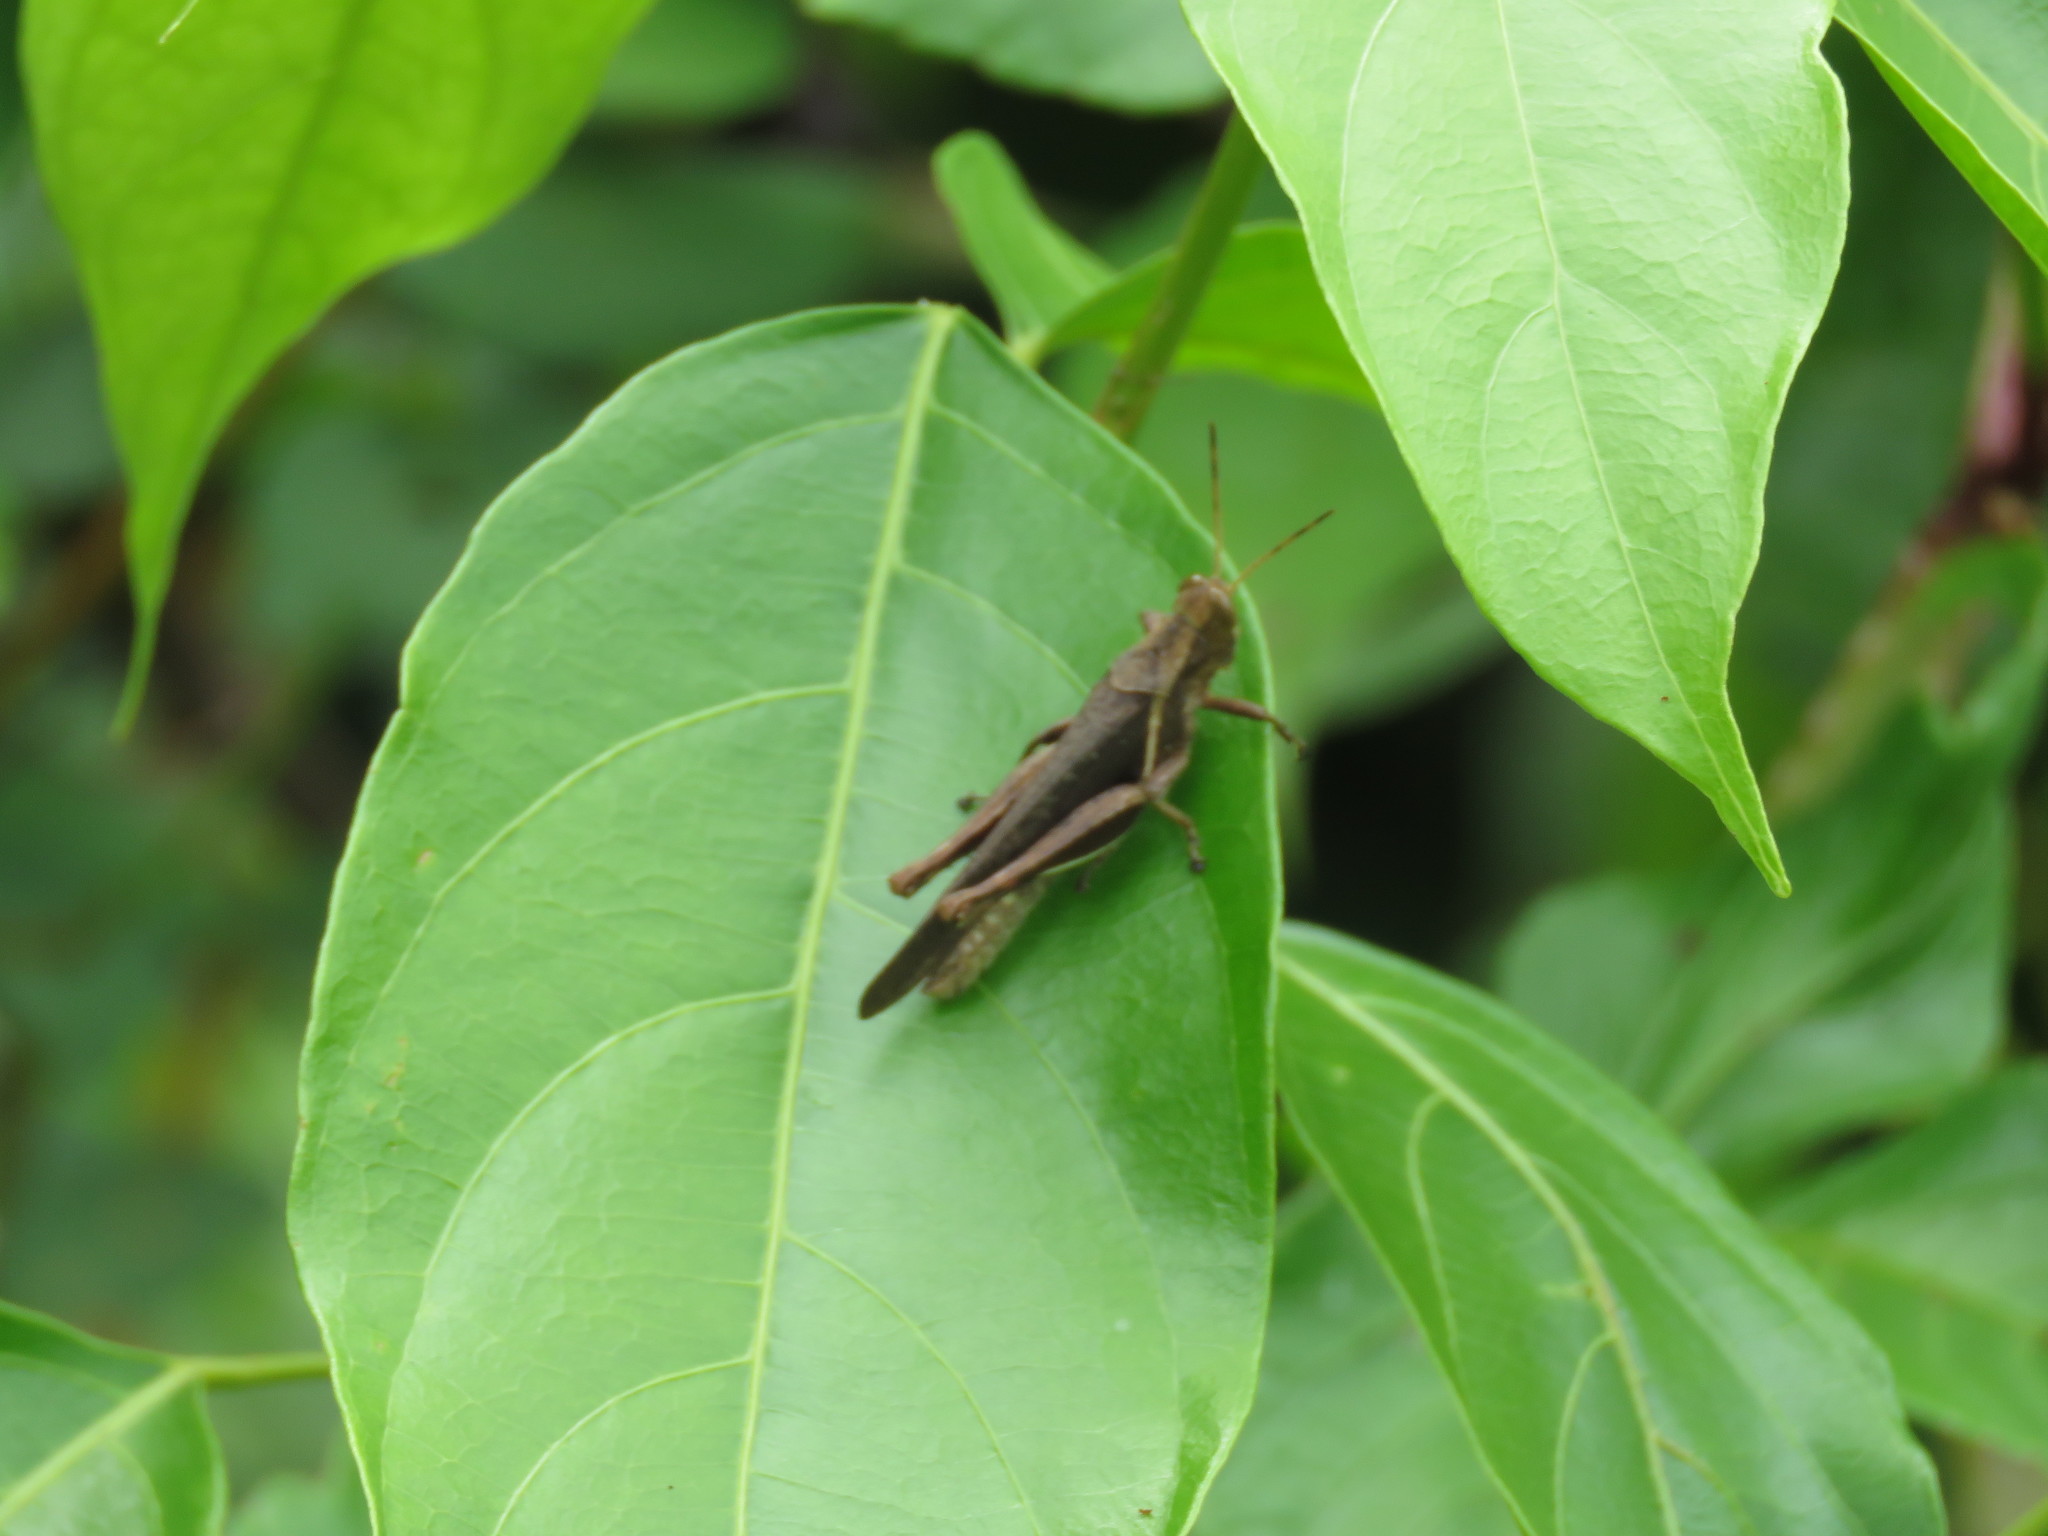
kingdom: Animalia
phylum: Arthropoda
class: Insecta
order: Orthoptera
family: Acrididae
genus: Abracris
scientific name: Abracris flavolineata
